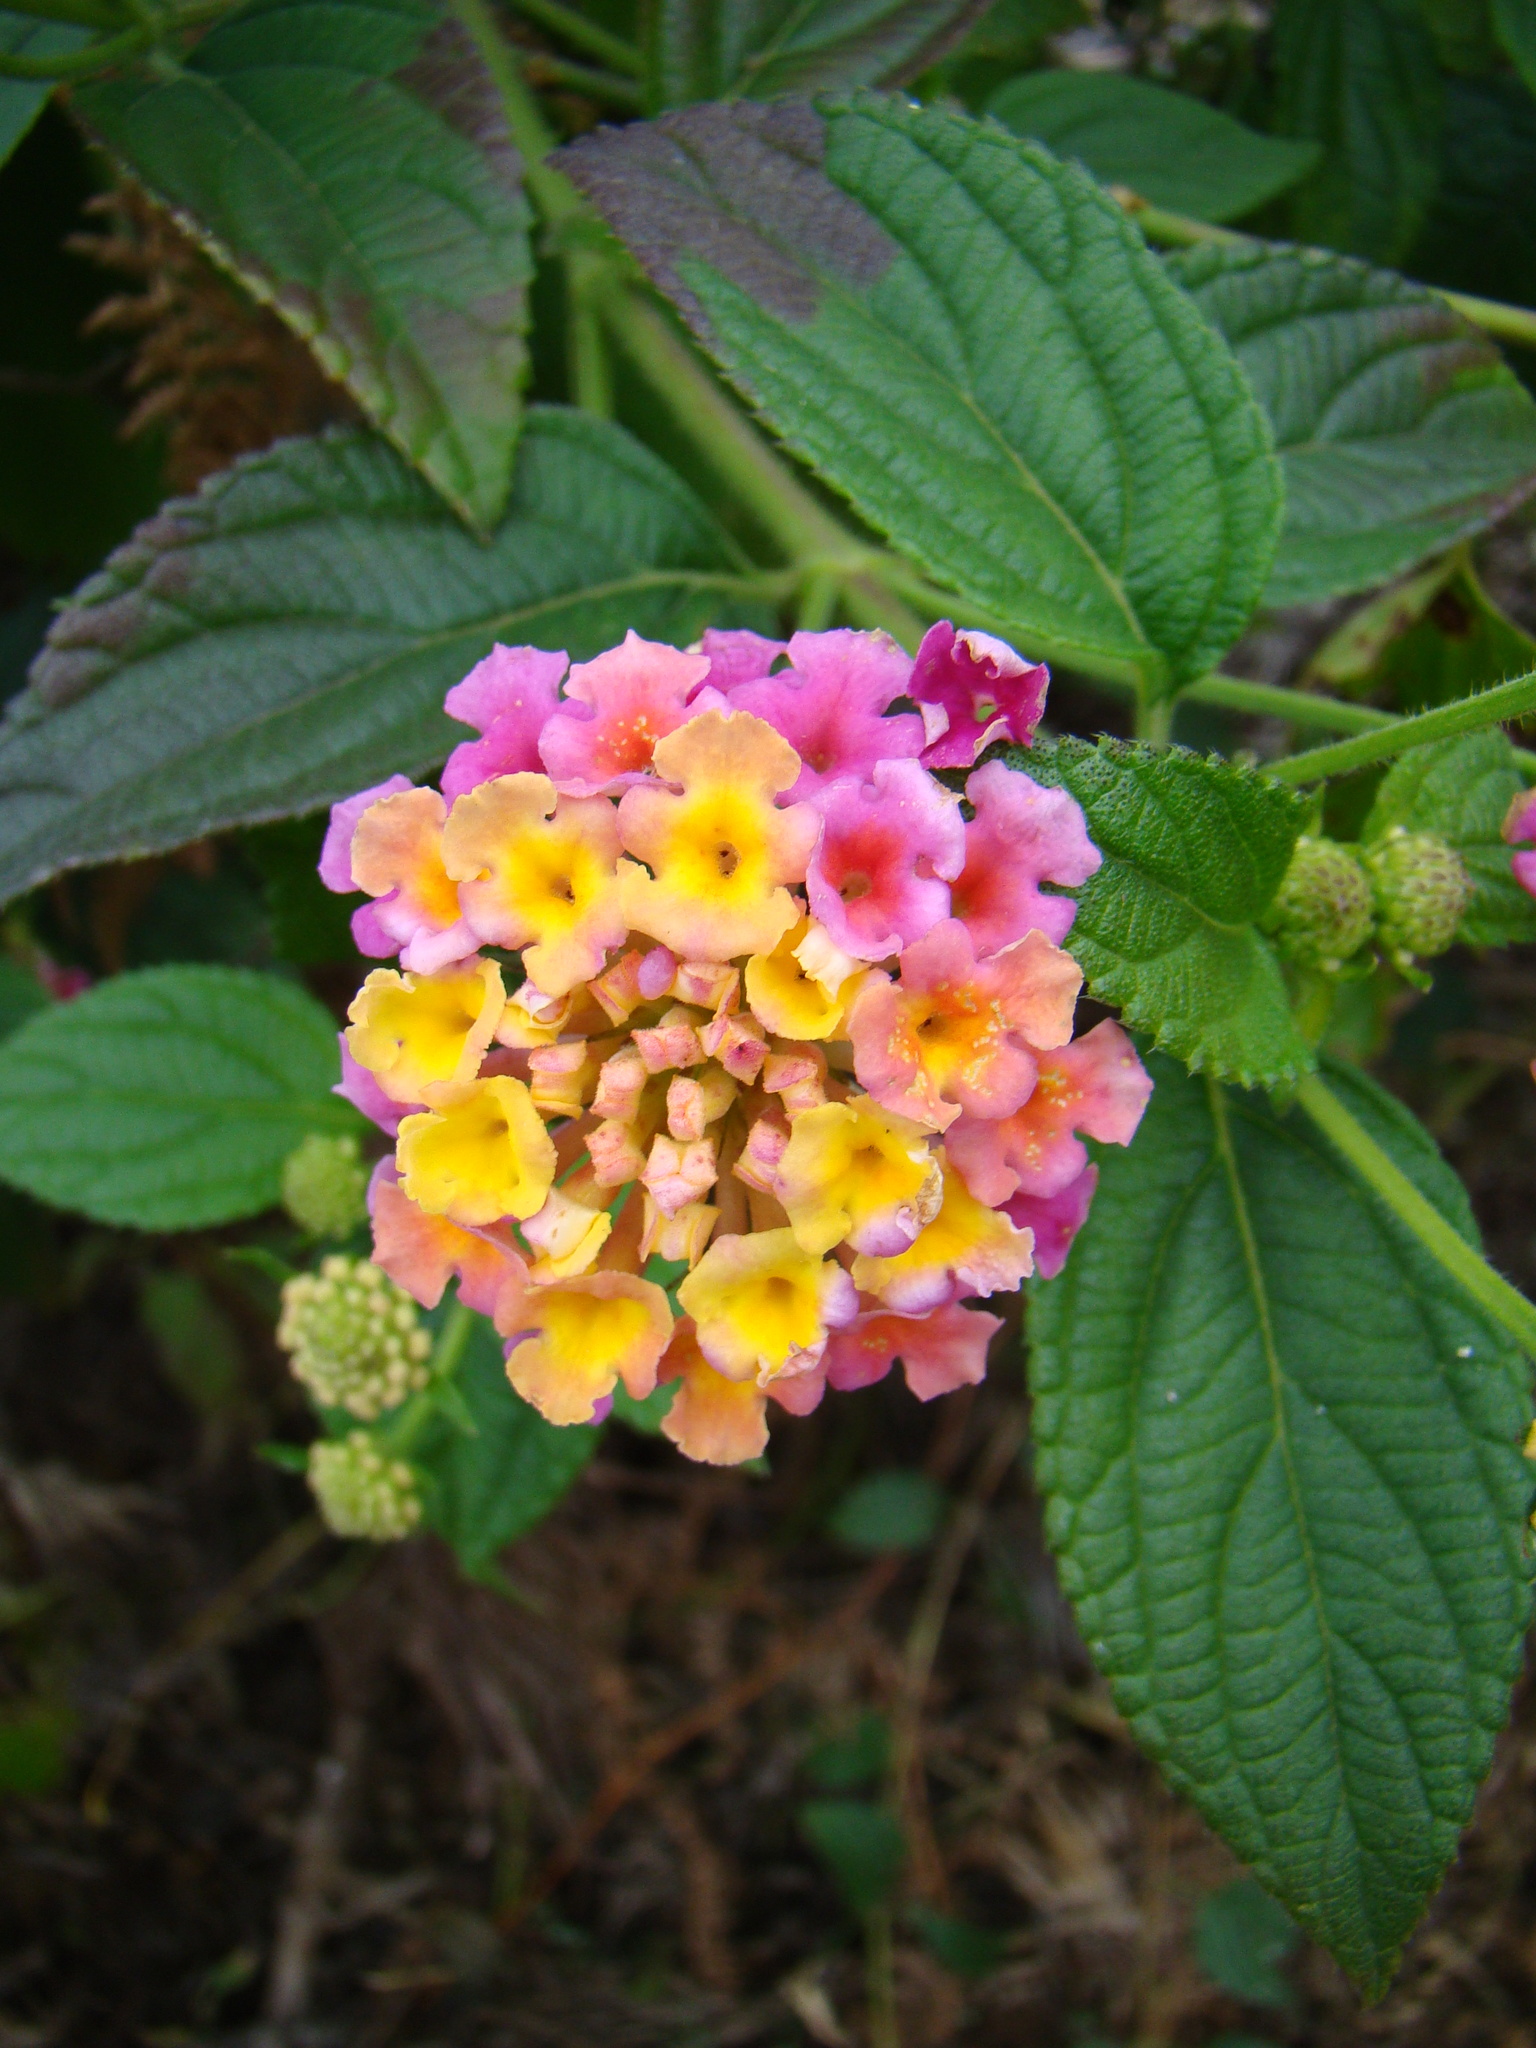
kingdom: Plantae
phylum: Tracheophyta
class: Magnoliopsida
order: Lamiales
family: Verbenaceae
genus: Lantana
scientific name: Lantana camara
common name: Lantana
